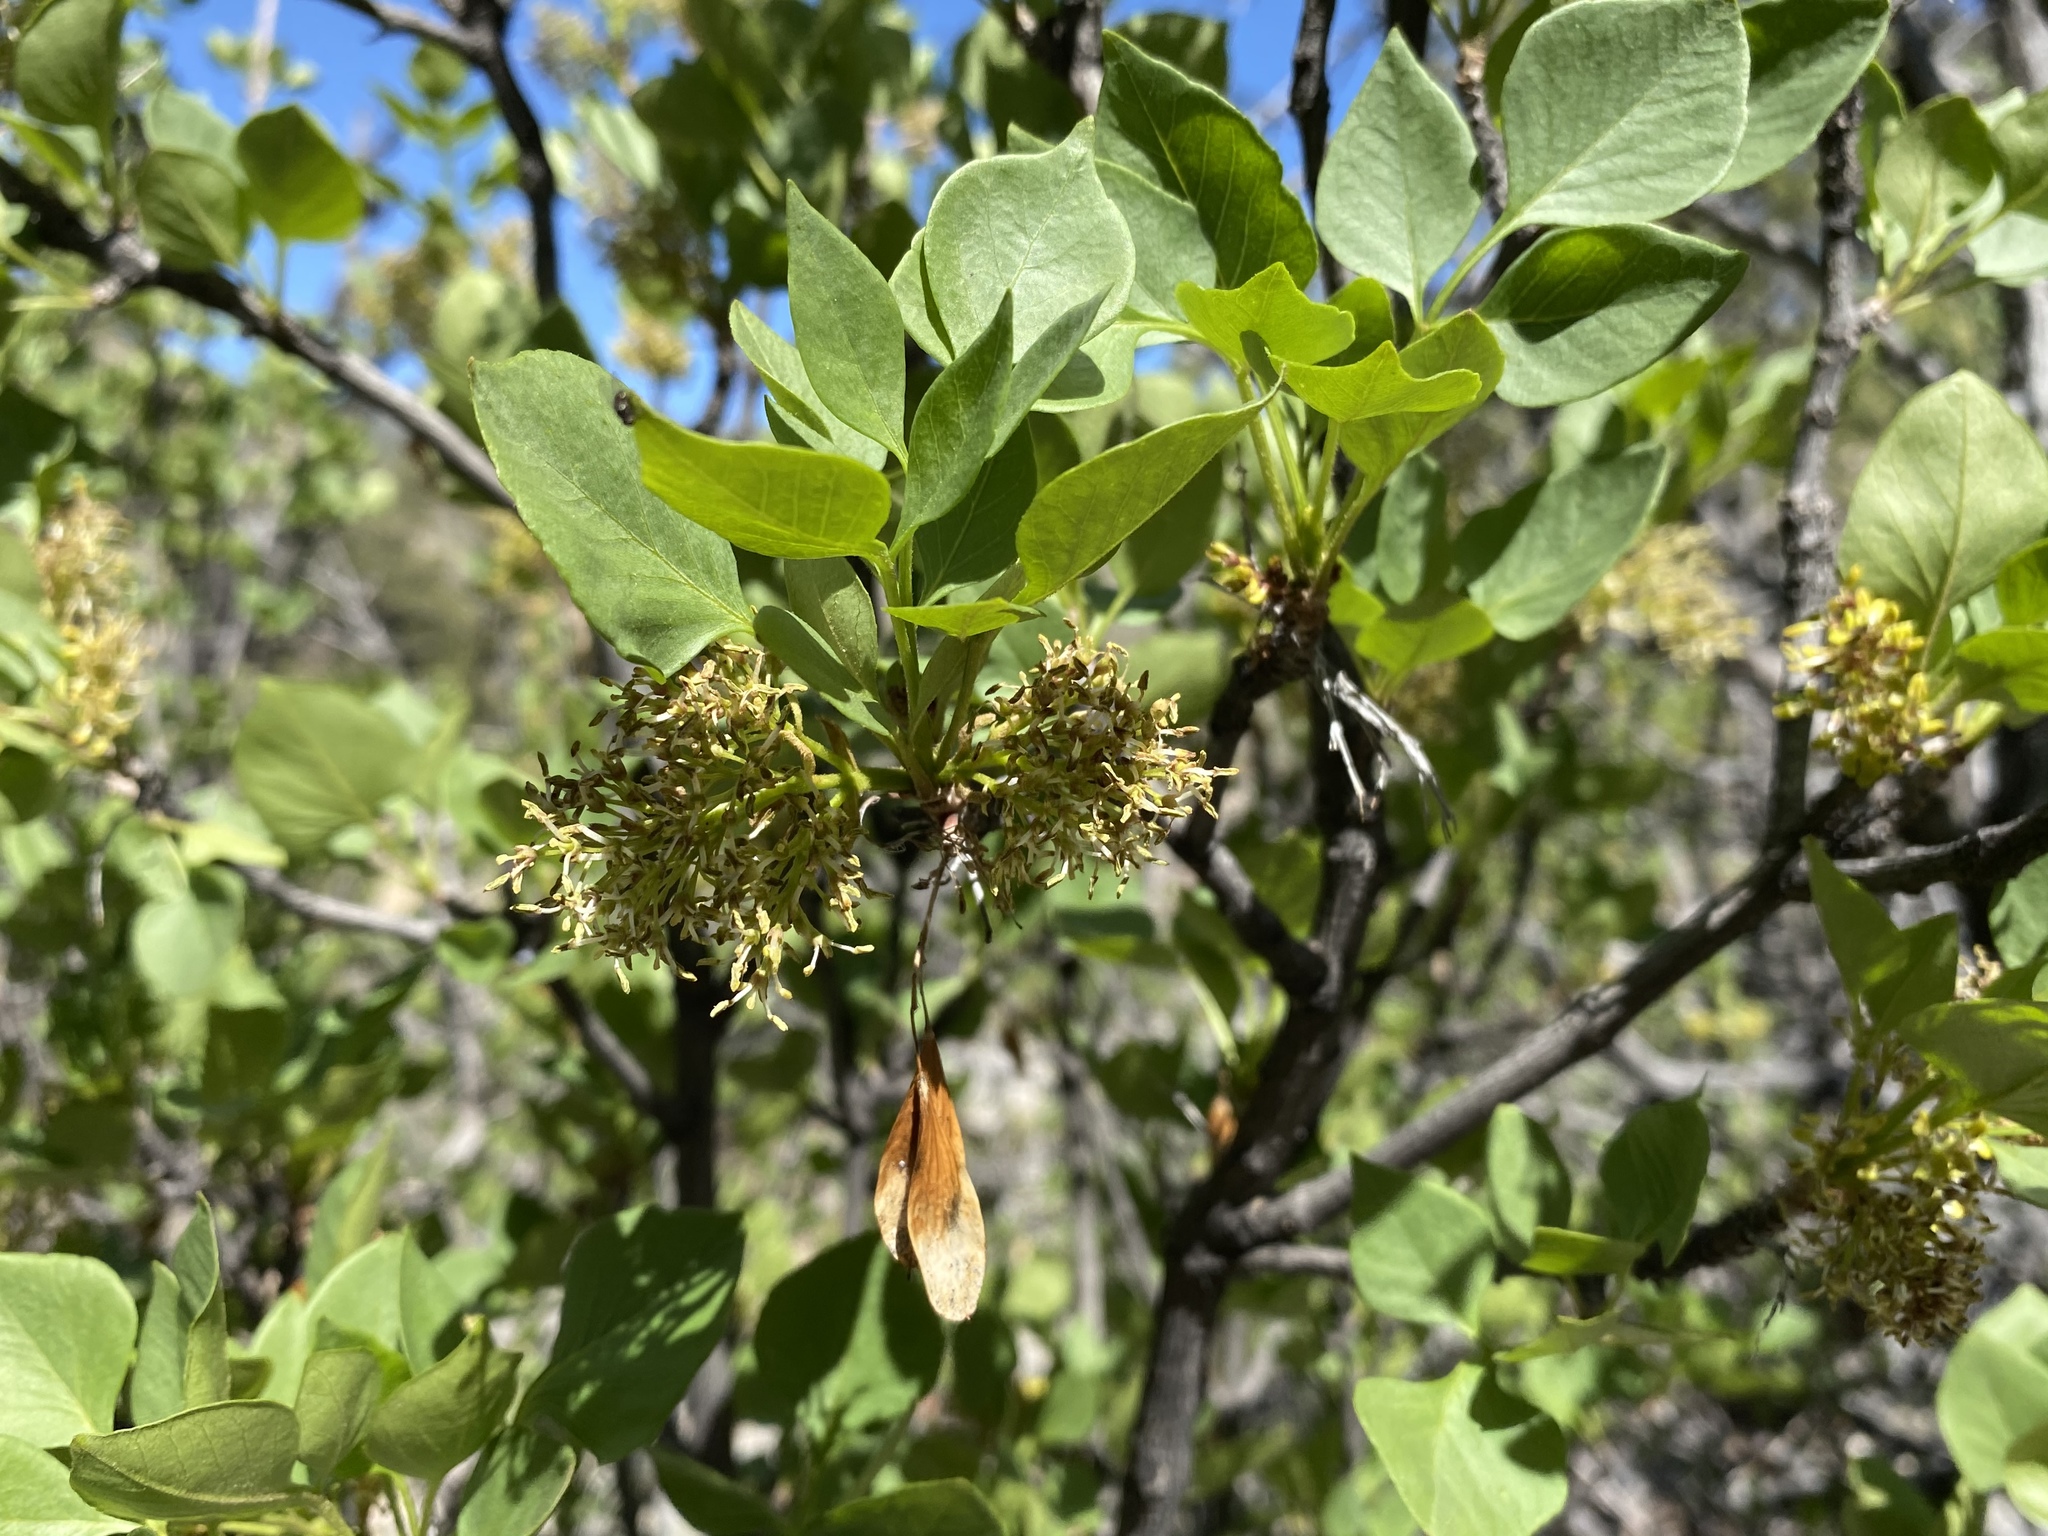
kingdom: Plantae
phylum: Tracheophyta
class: Magnoliopsida
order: Lamiales
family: Oleaceae
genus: Fraxinus
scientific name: Fraxinus anomala
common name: Utah ash
